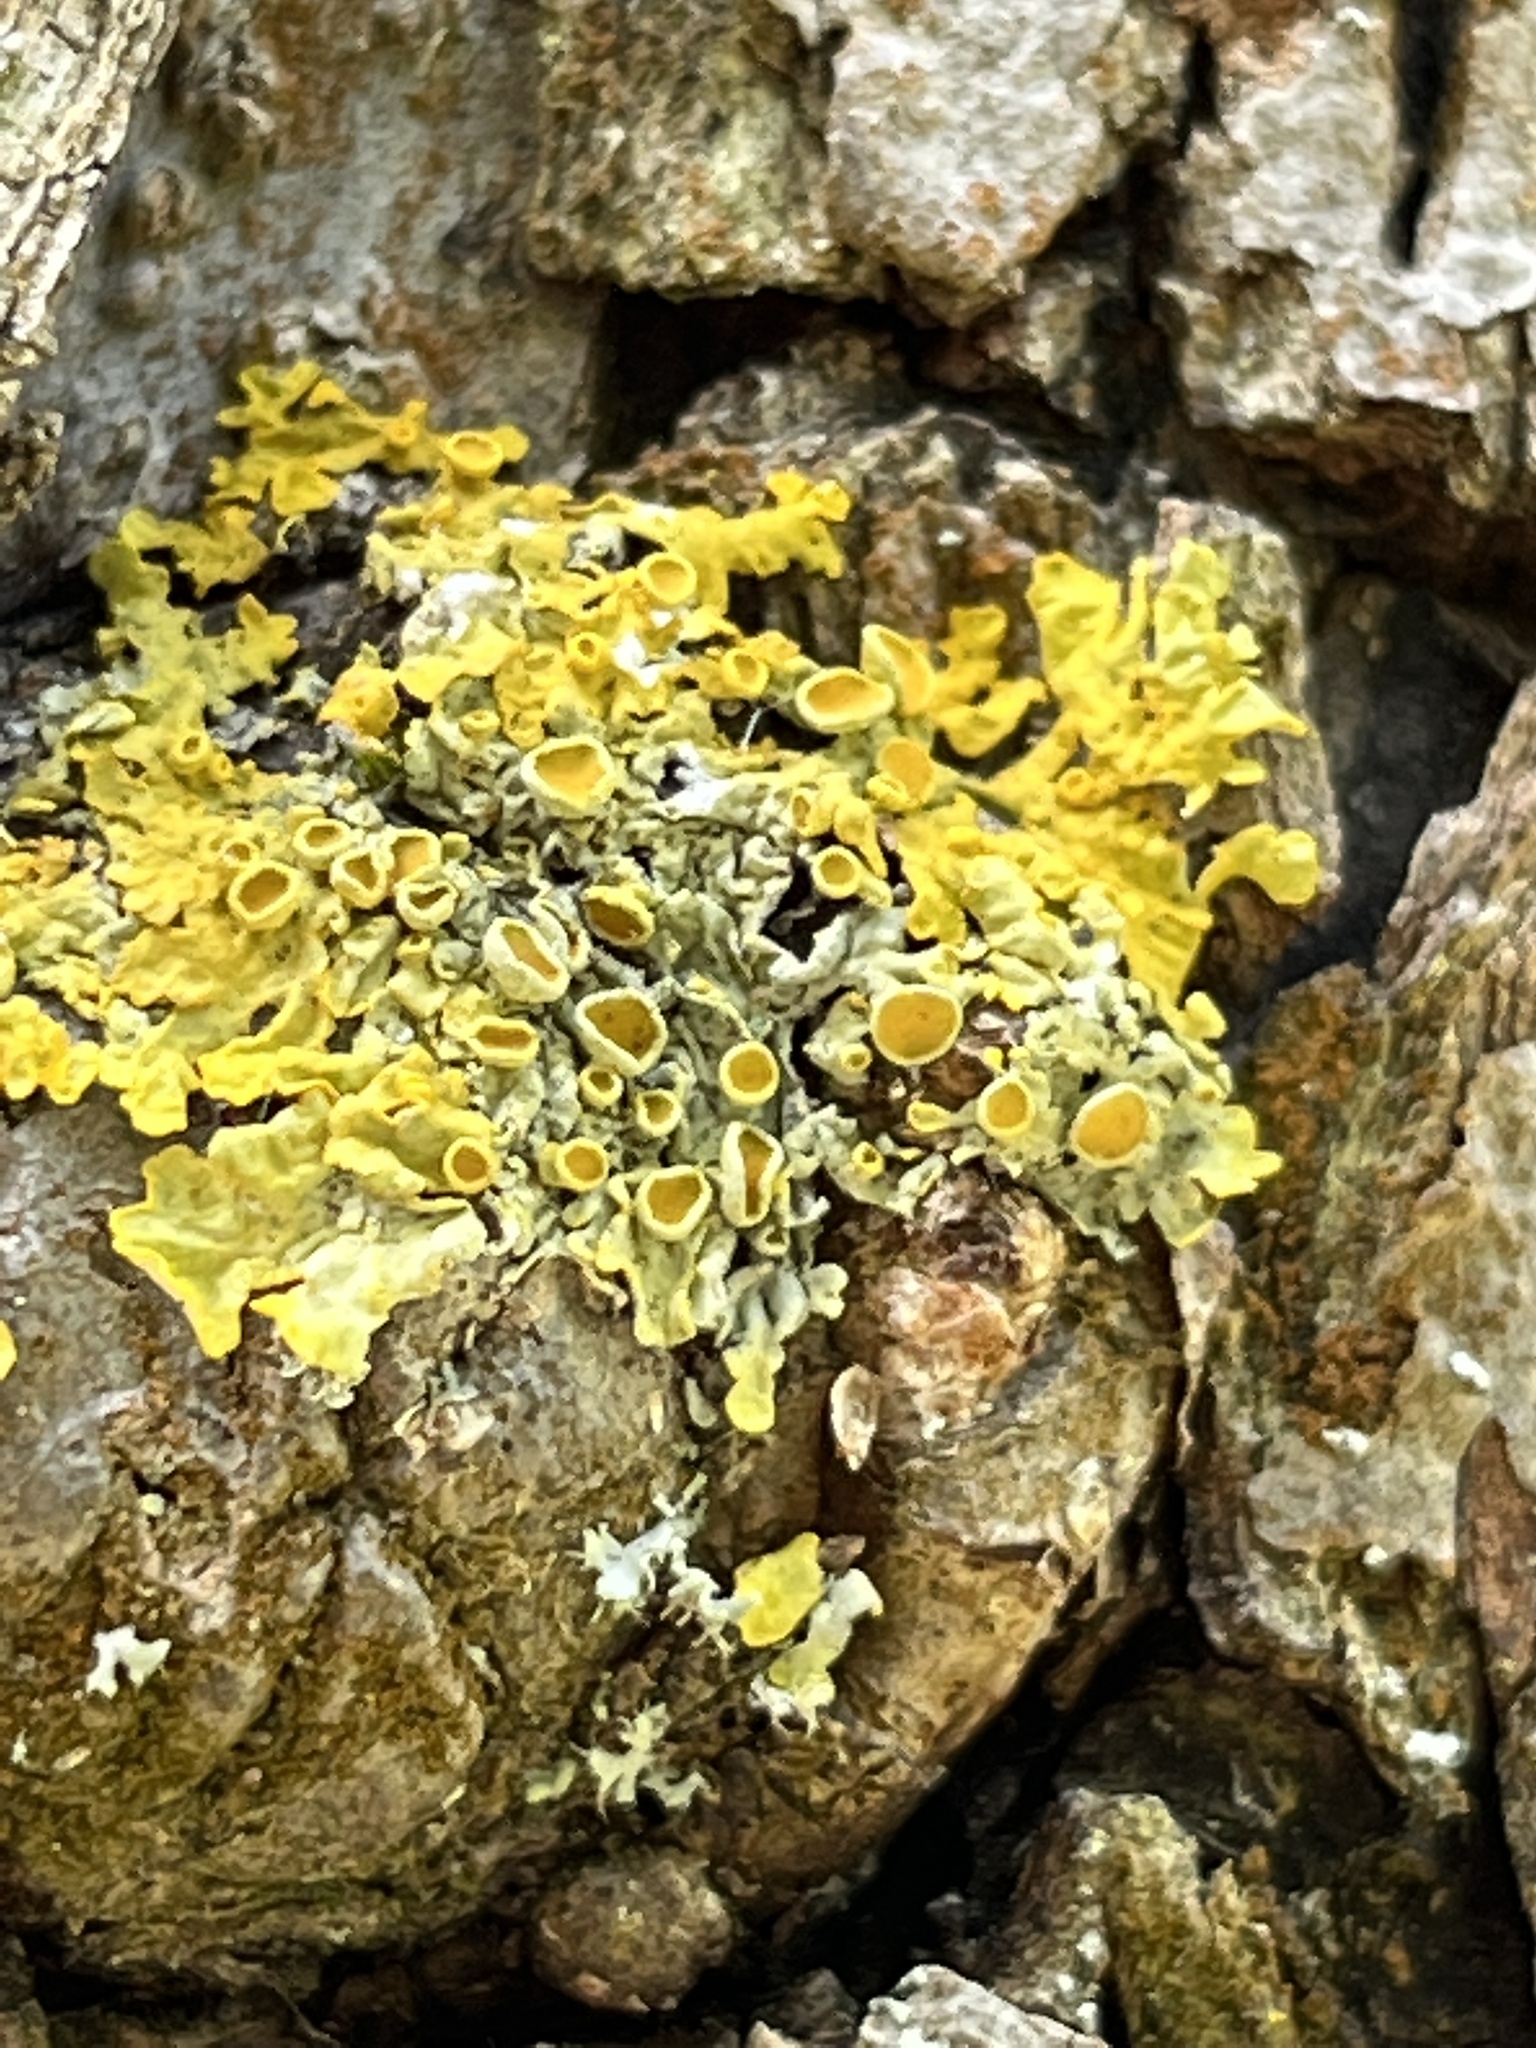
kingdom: Fungi
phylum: Ascomycota
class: Lecanoromycetes
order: Teloschistales
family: Teloschistaceae
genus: Xanthoria
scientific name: Xanthoria parietina
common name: Common orange lichen
